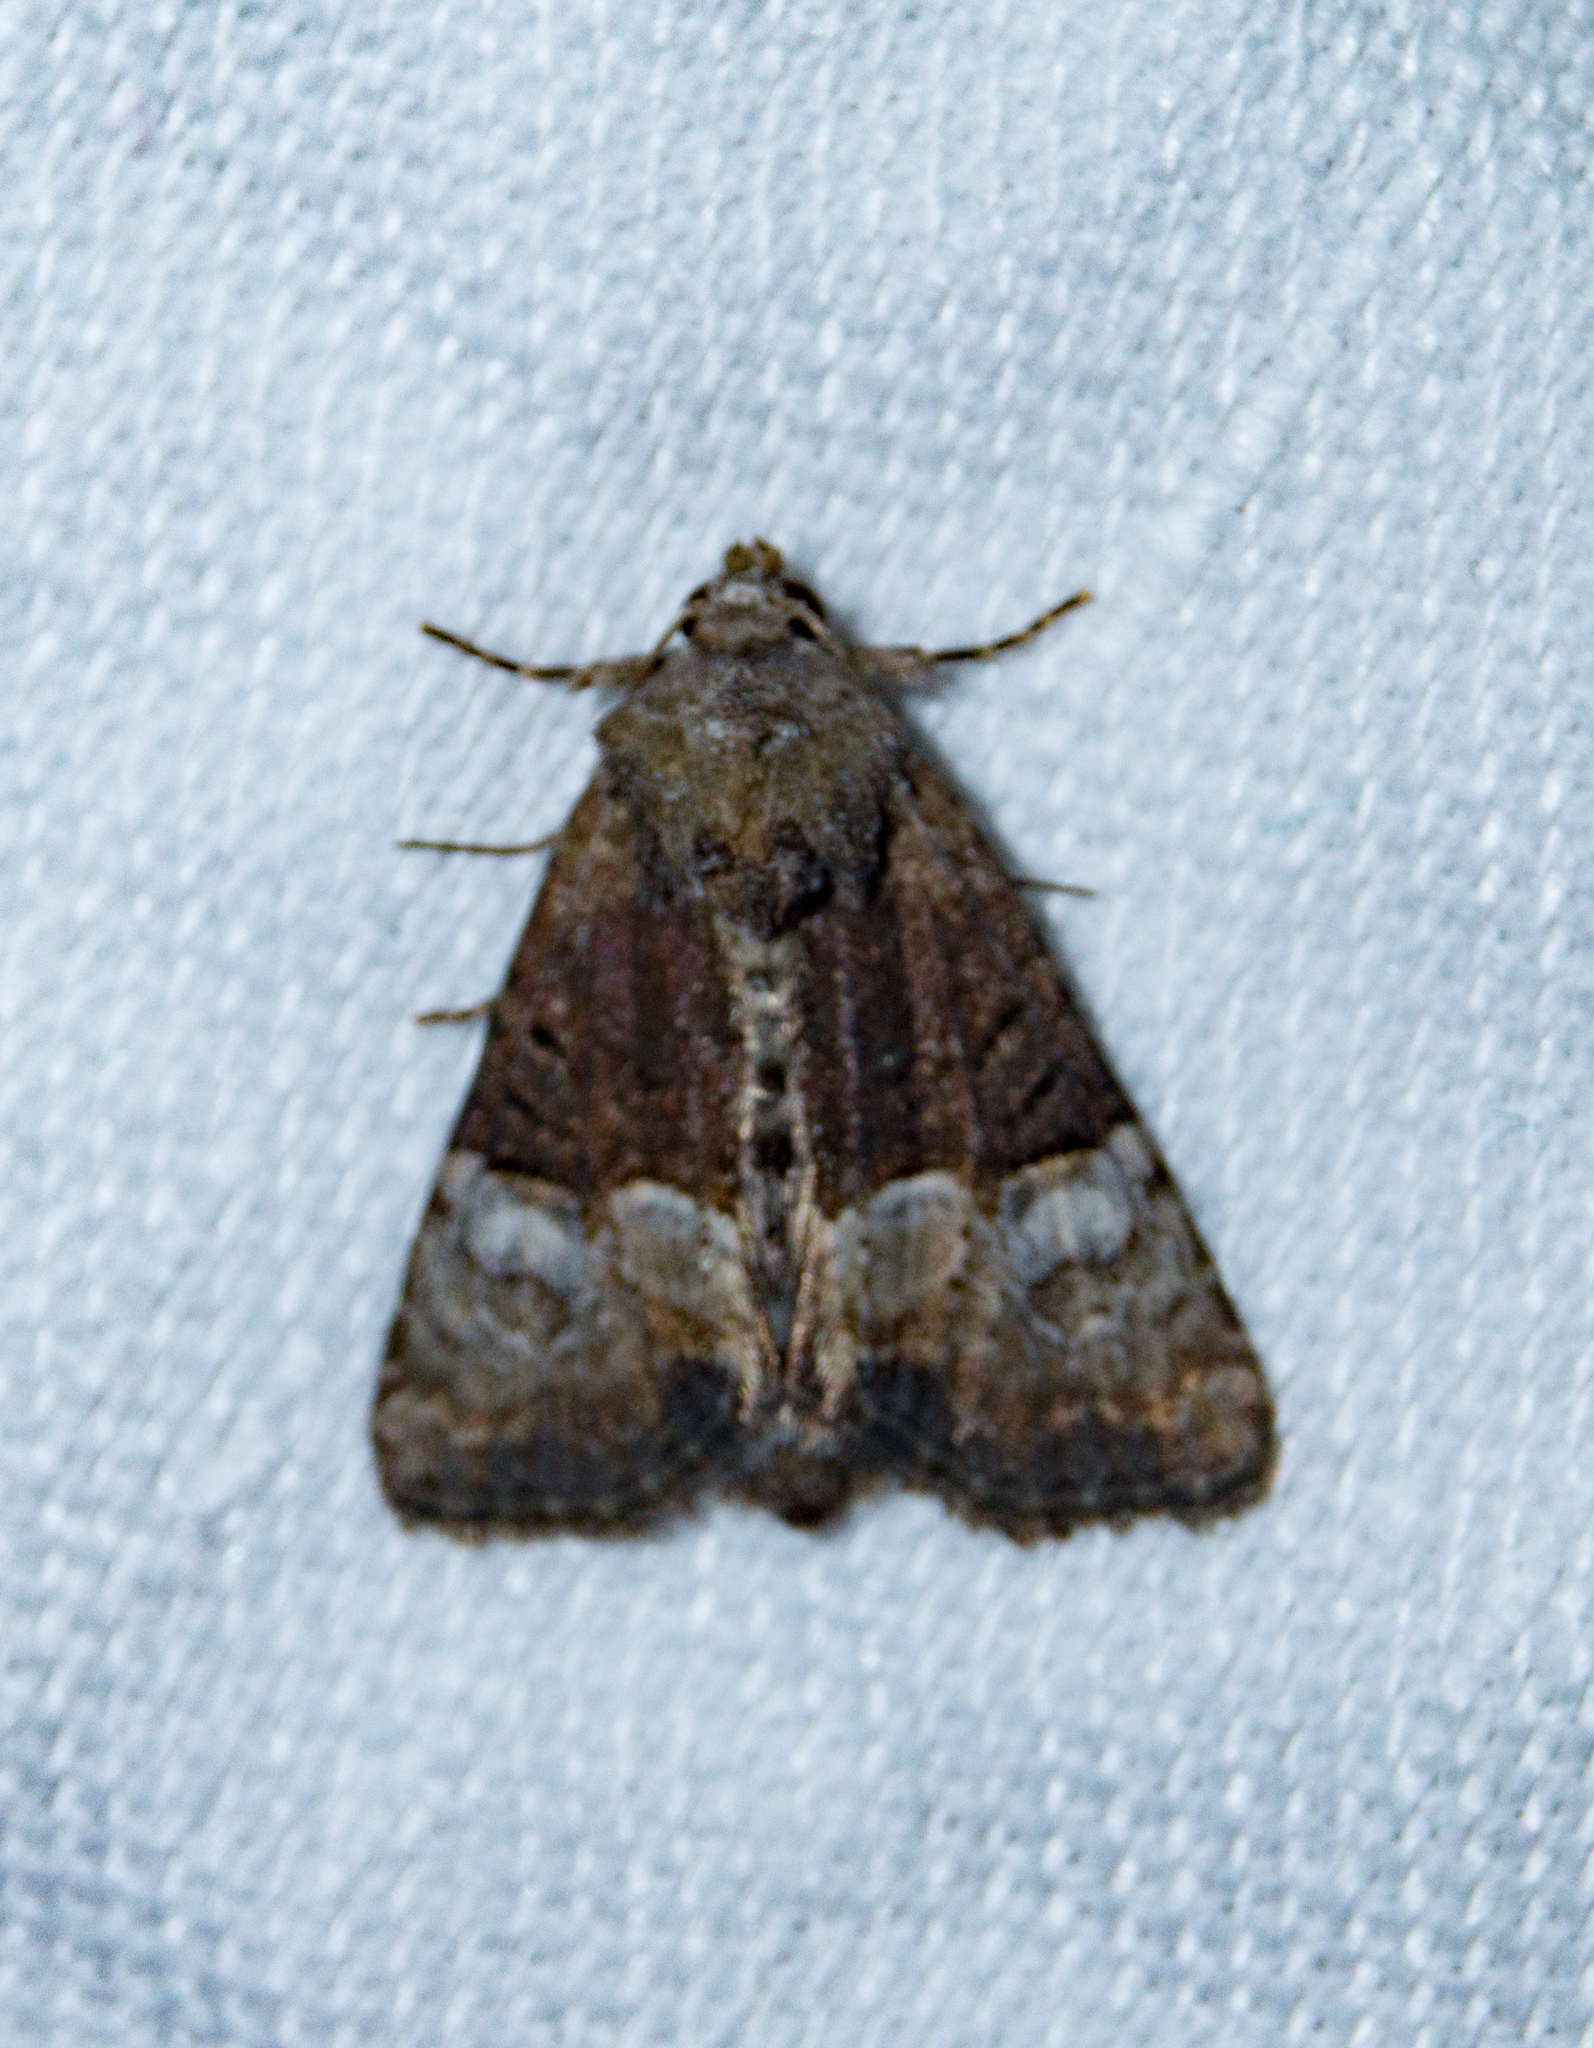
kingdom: Animalia
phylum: Arthropoda
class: Insecta
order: Lepidoptera
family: Noctuidae
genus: Mesoligia
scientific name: Mesoligia furuncula
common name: Cloaked minor
